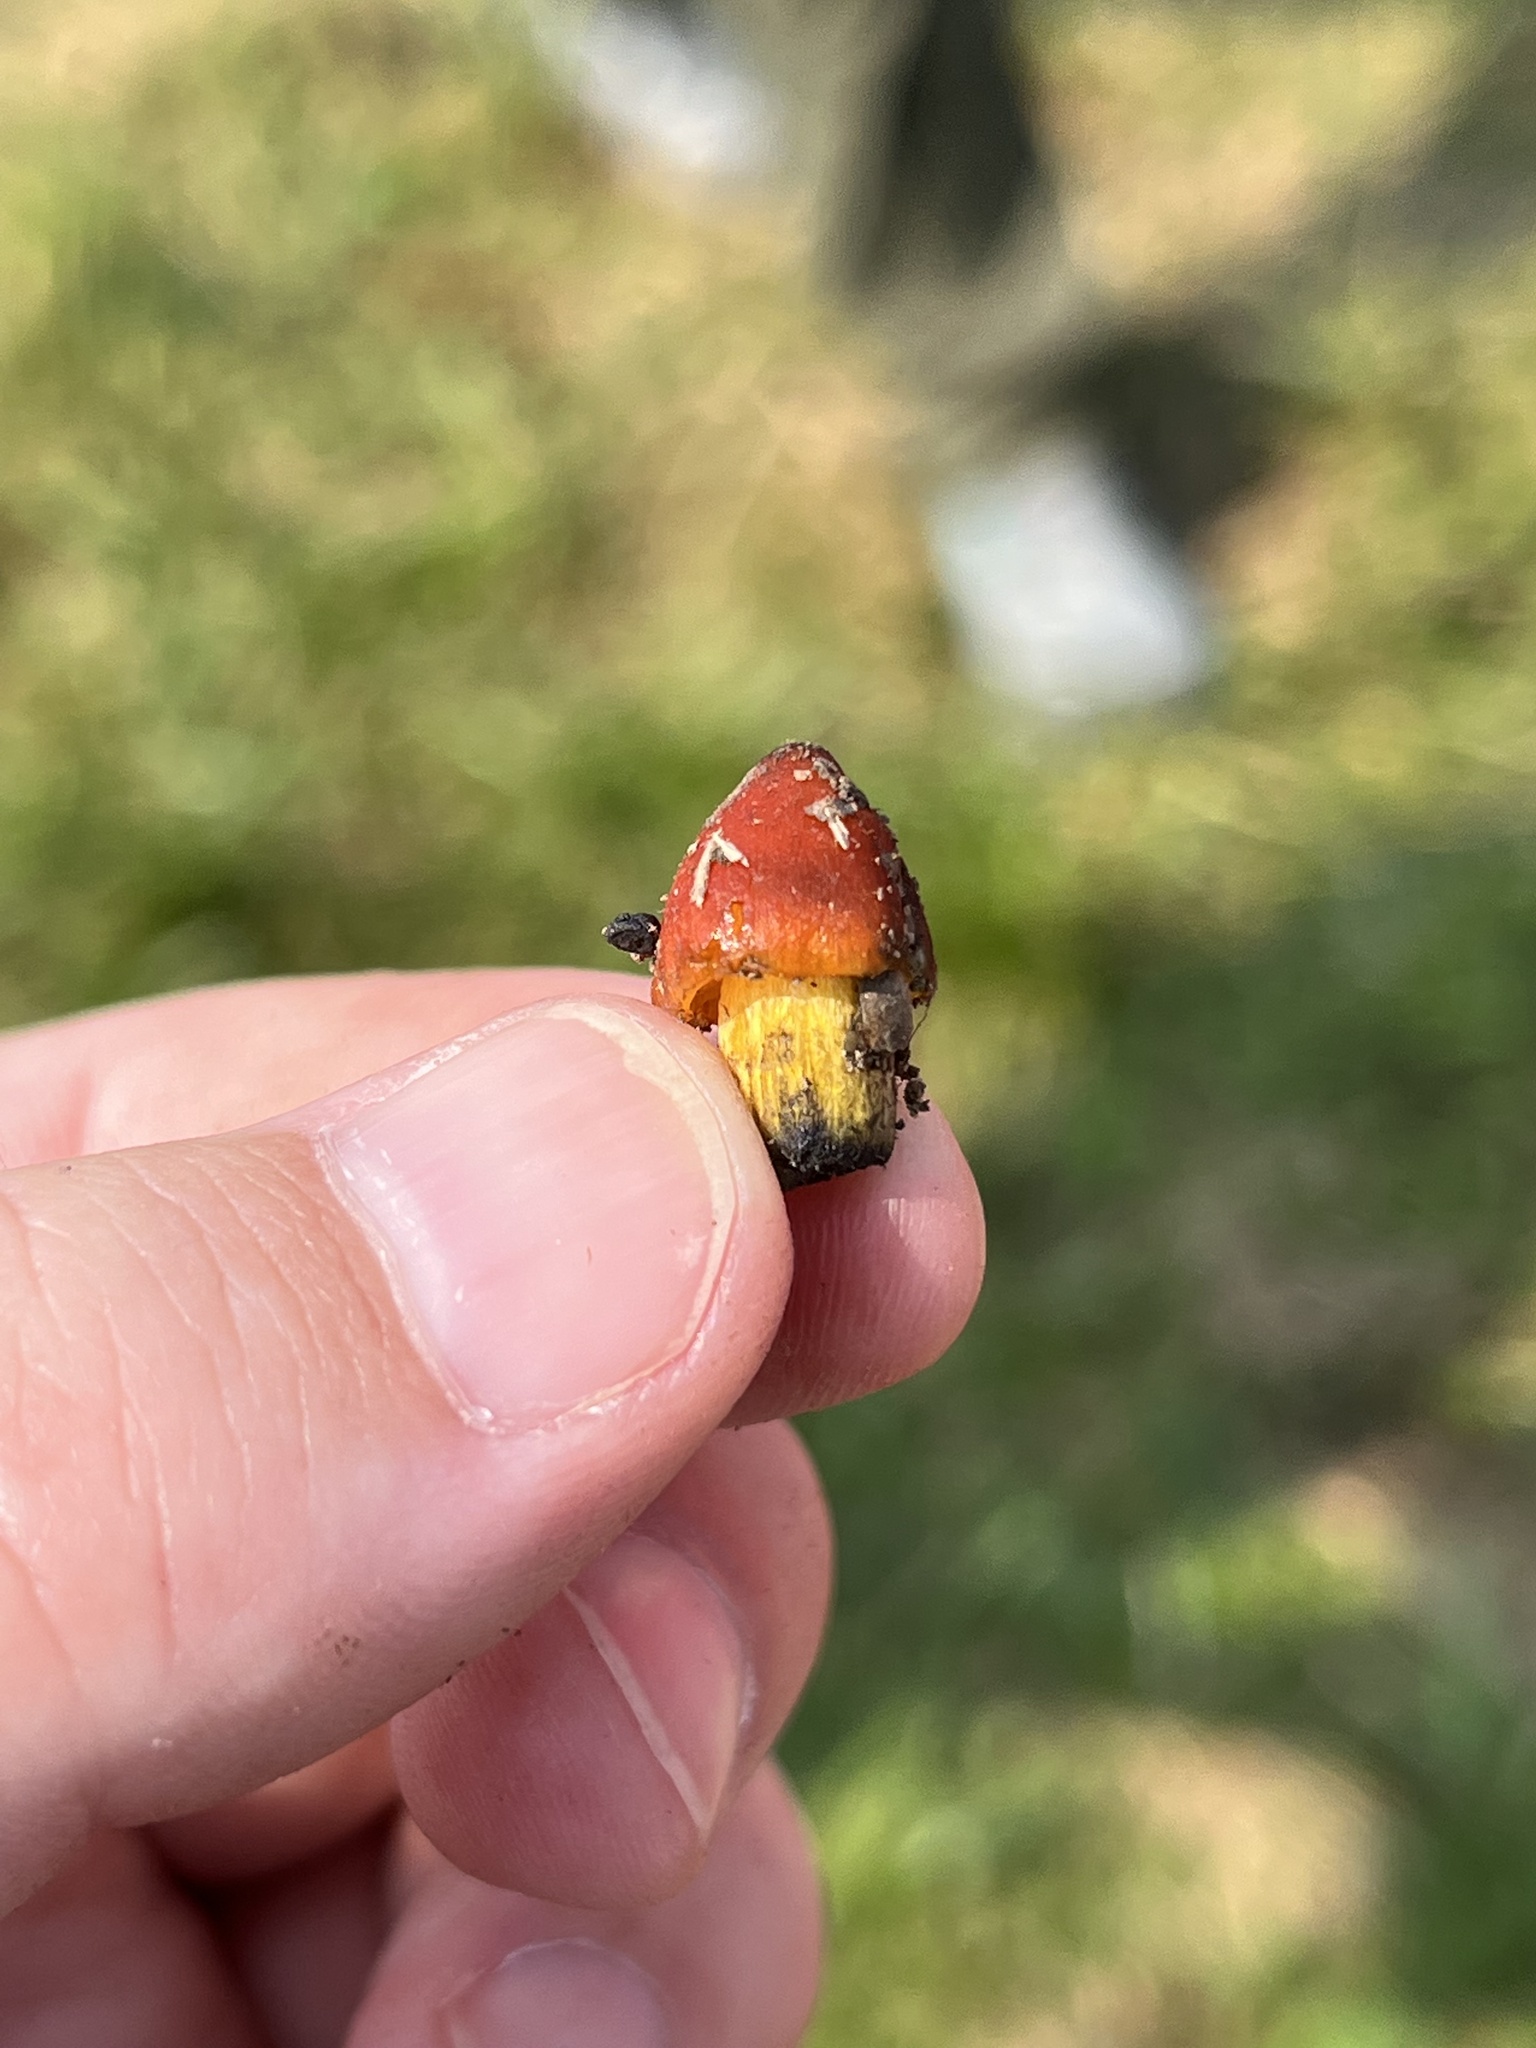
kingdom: Fungi
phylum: Basidiomycota
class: Agaricomycetes
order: Agaricales
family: Hygrophoraceae
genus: Hygrocybe
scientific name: Hygrocybe conica
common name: Blackening wax-cap
